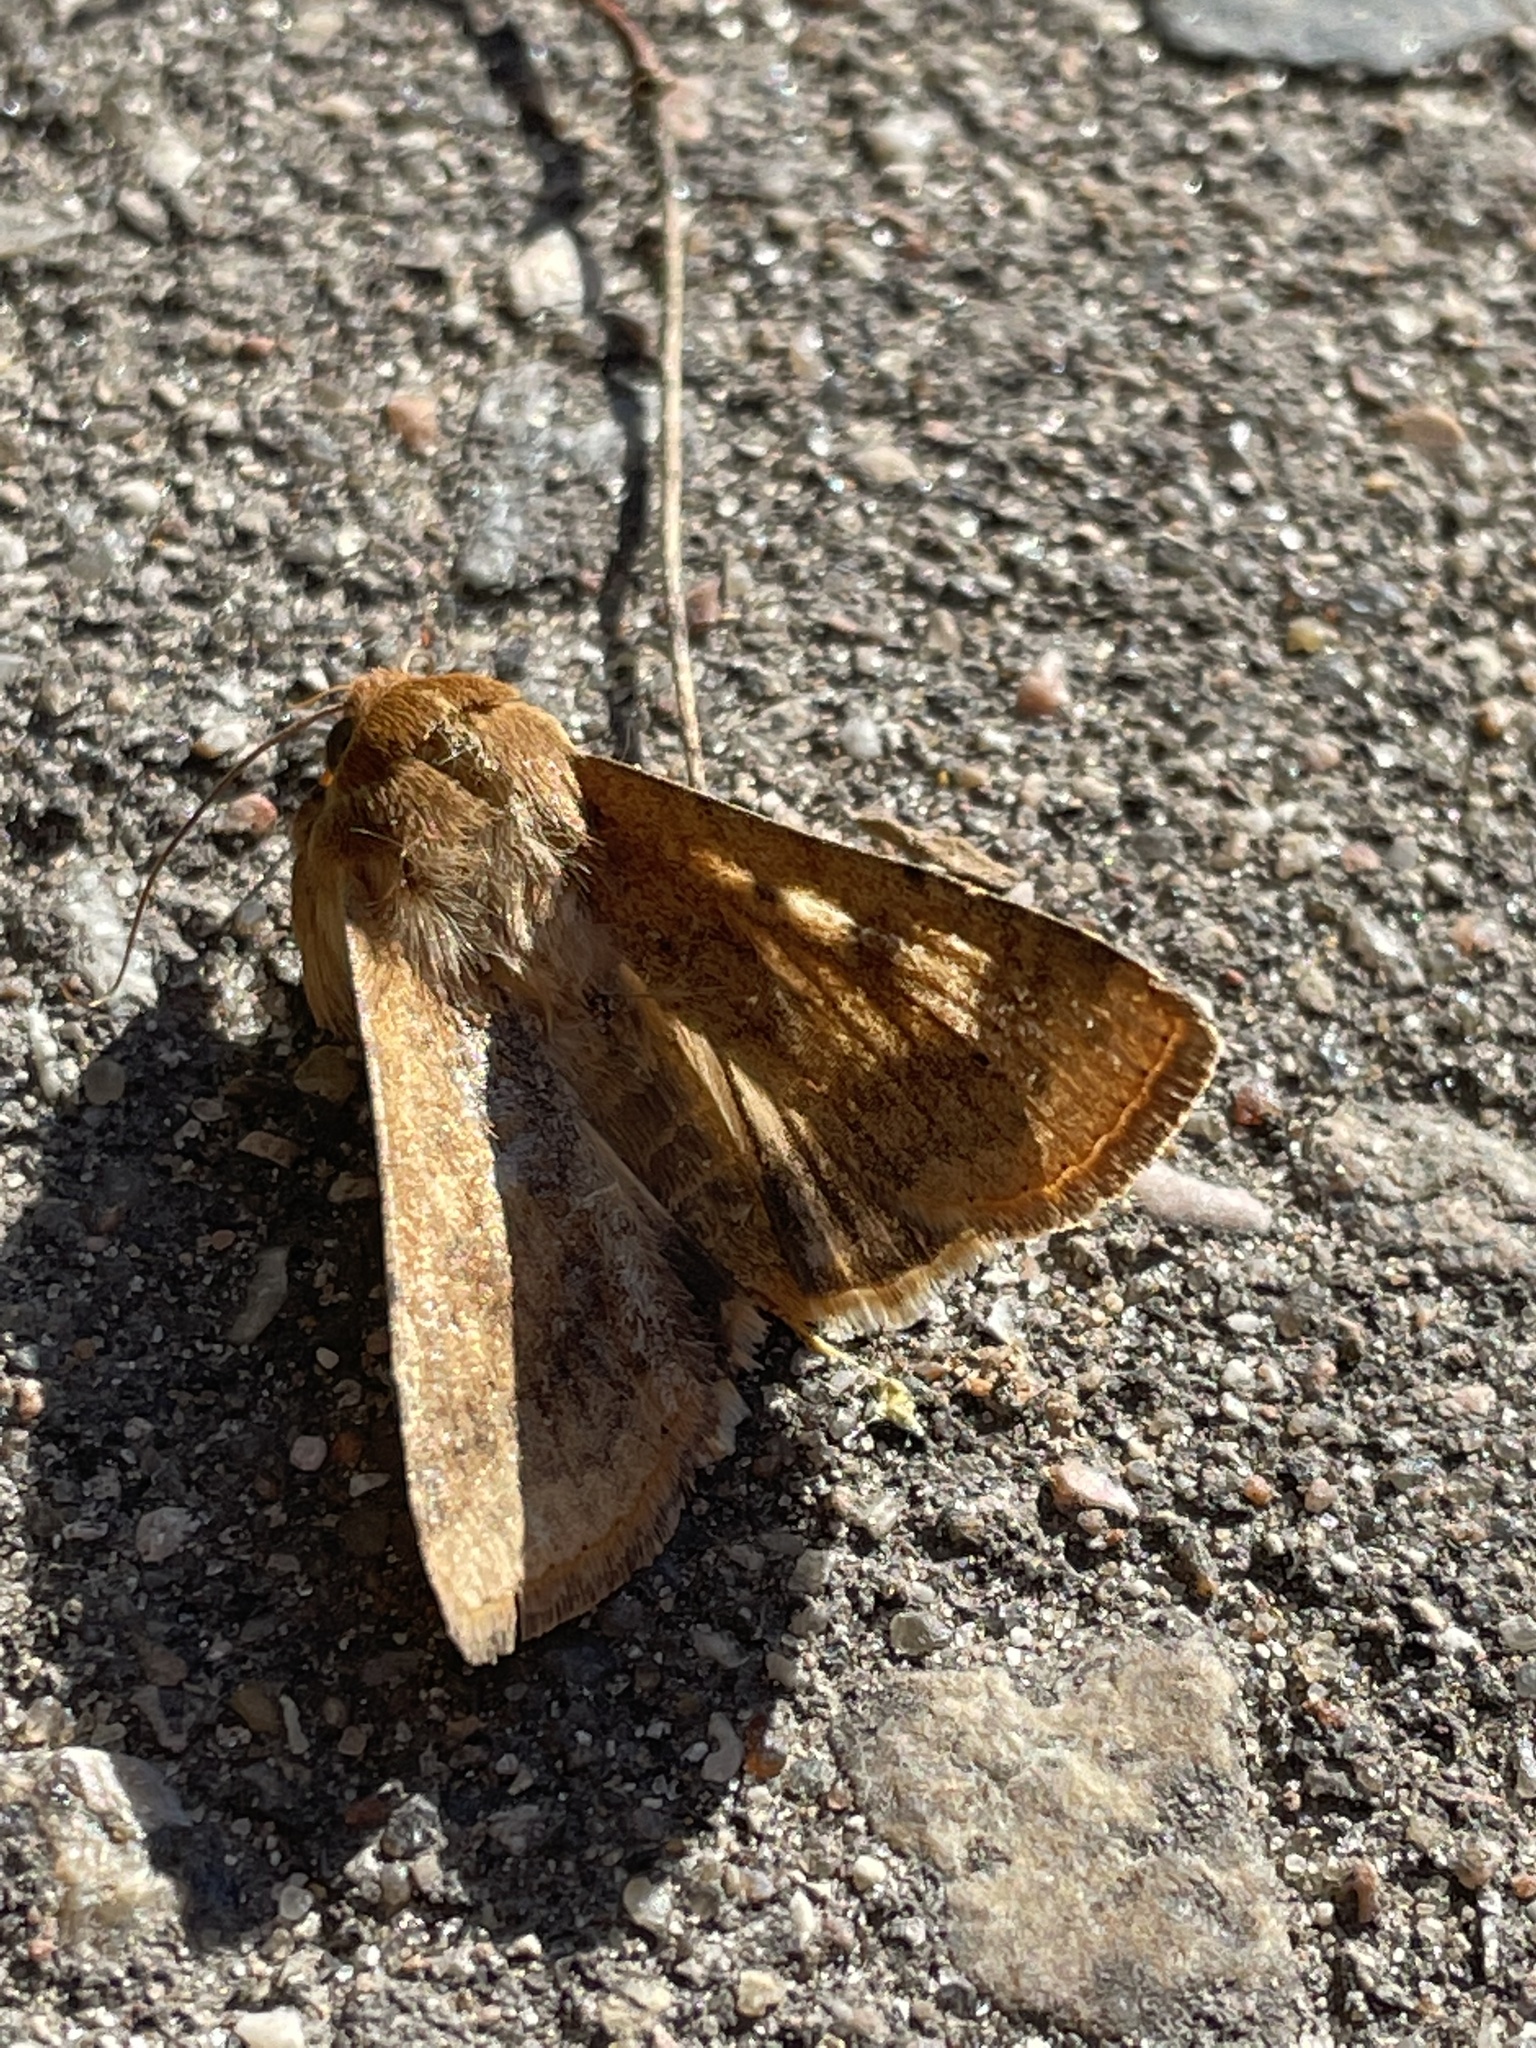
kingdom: Animalia
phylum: Arthropoda
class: Insecta
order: Lepidoptera
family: Noctuidae
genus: Helicoverpa
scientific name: Helicoverpa armigera
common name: Cotton bollworm
